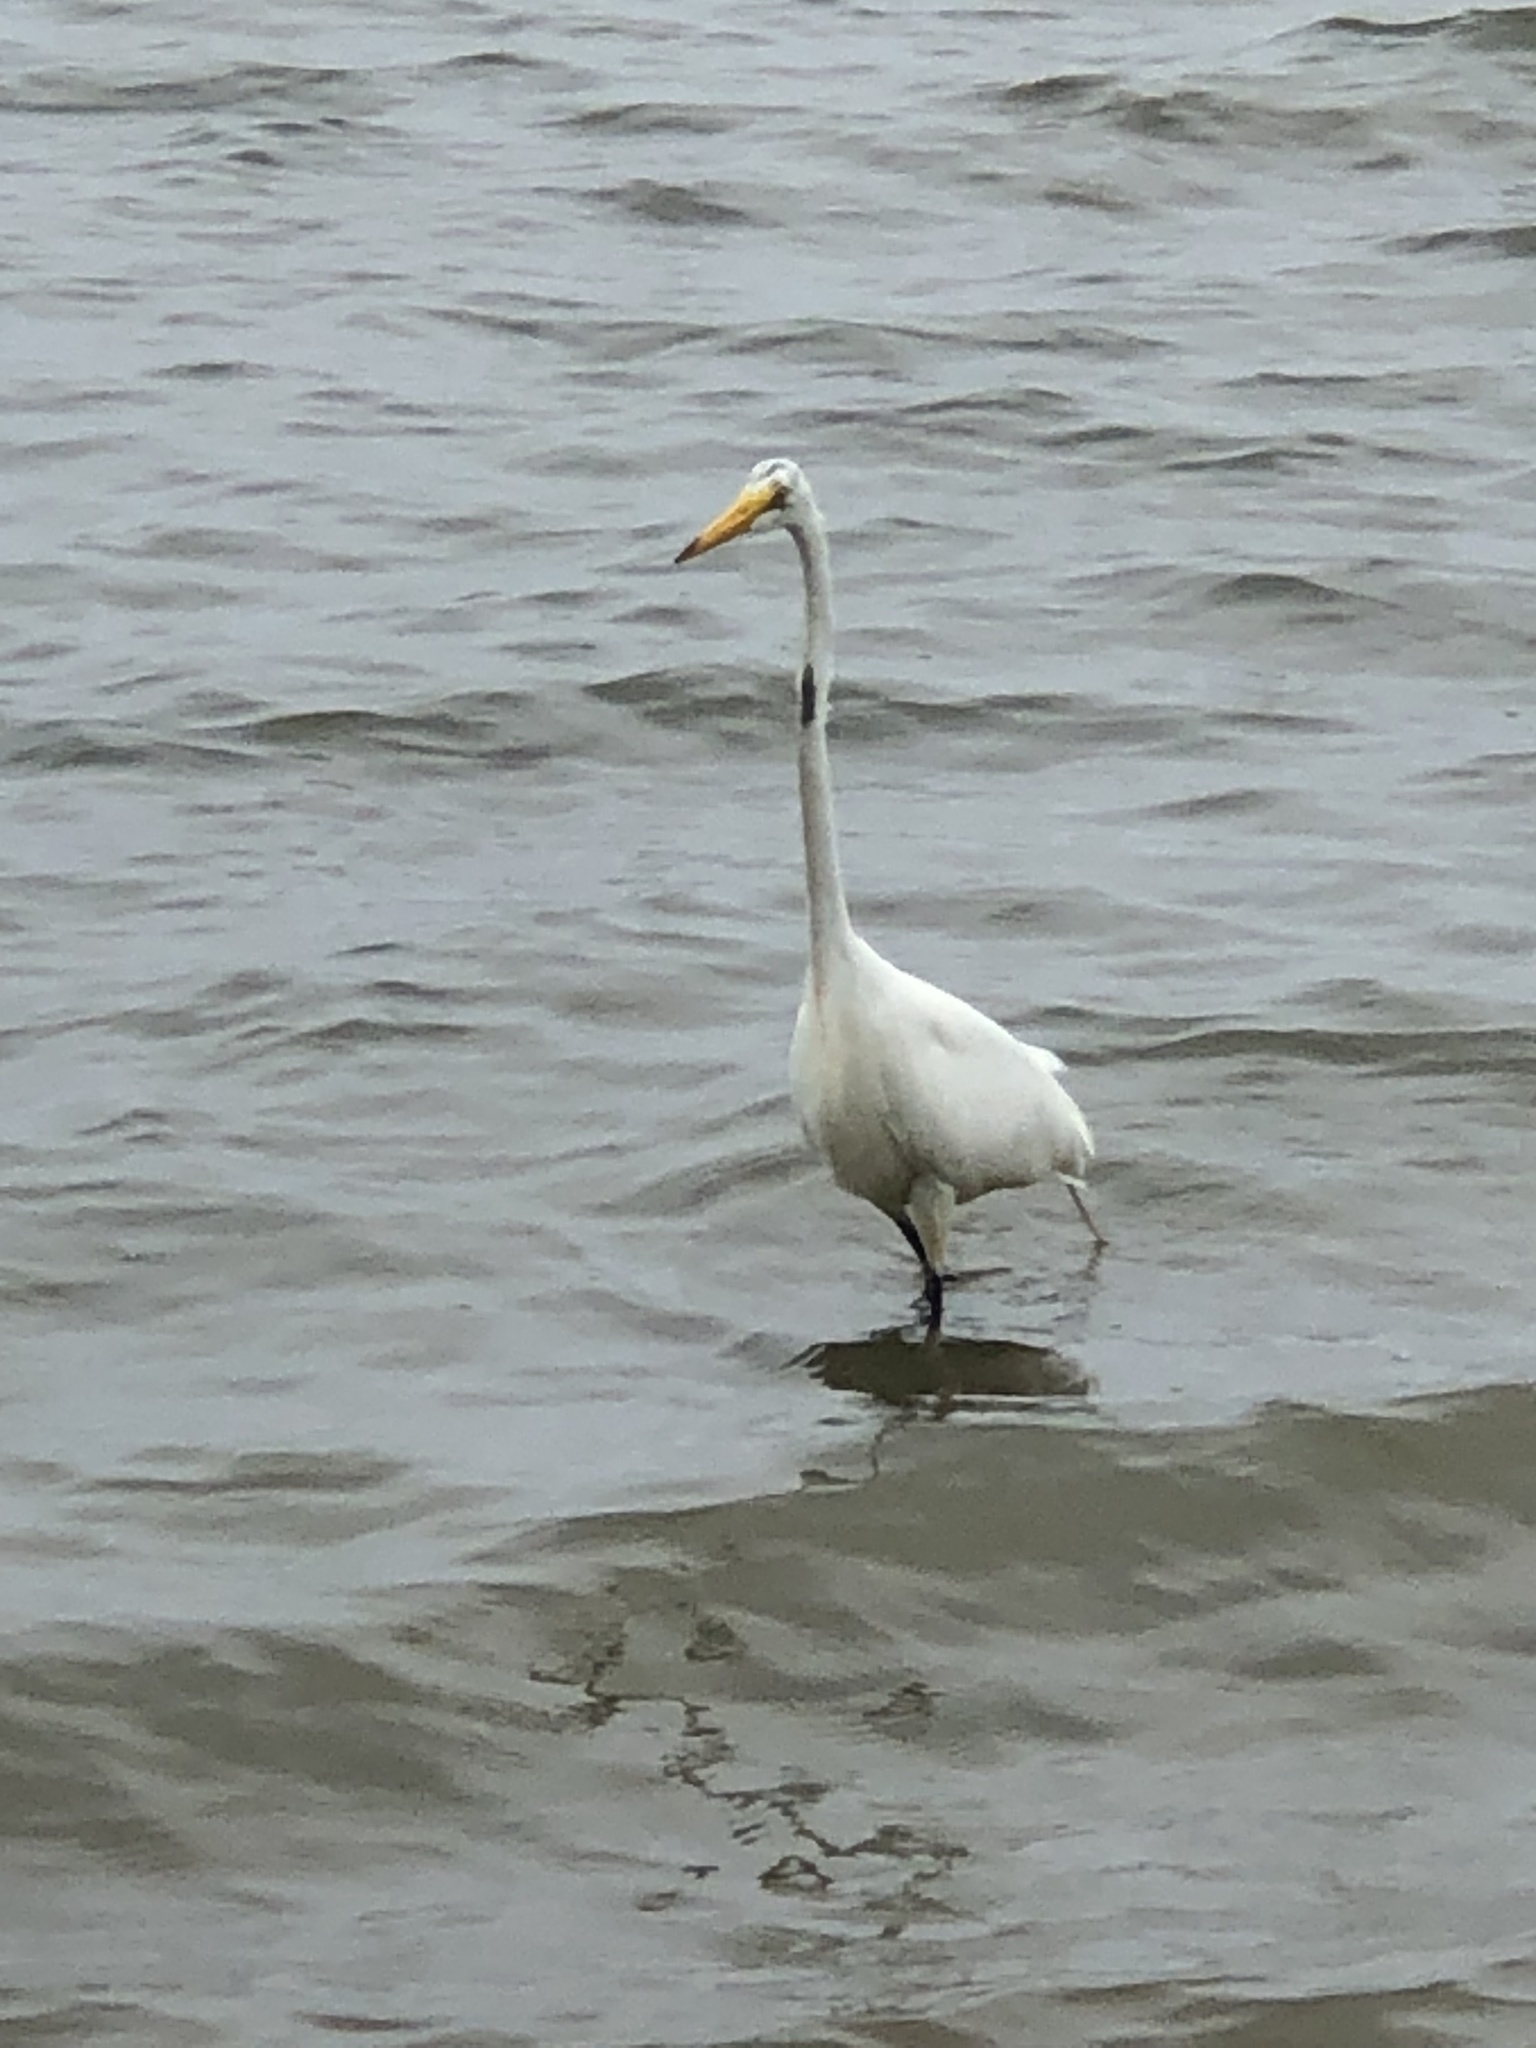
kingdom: Animalia
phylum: Chordata
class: Aves
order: Pelecaniformes
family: Ardeidae
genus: Ardea
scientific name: Ardea alba
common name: Great egret
